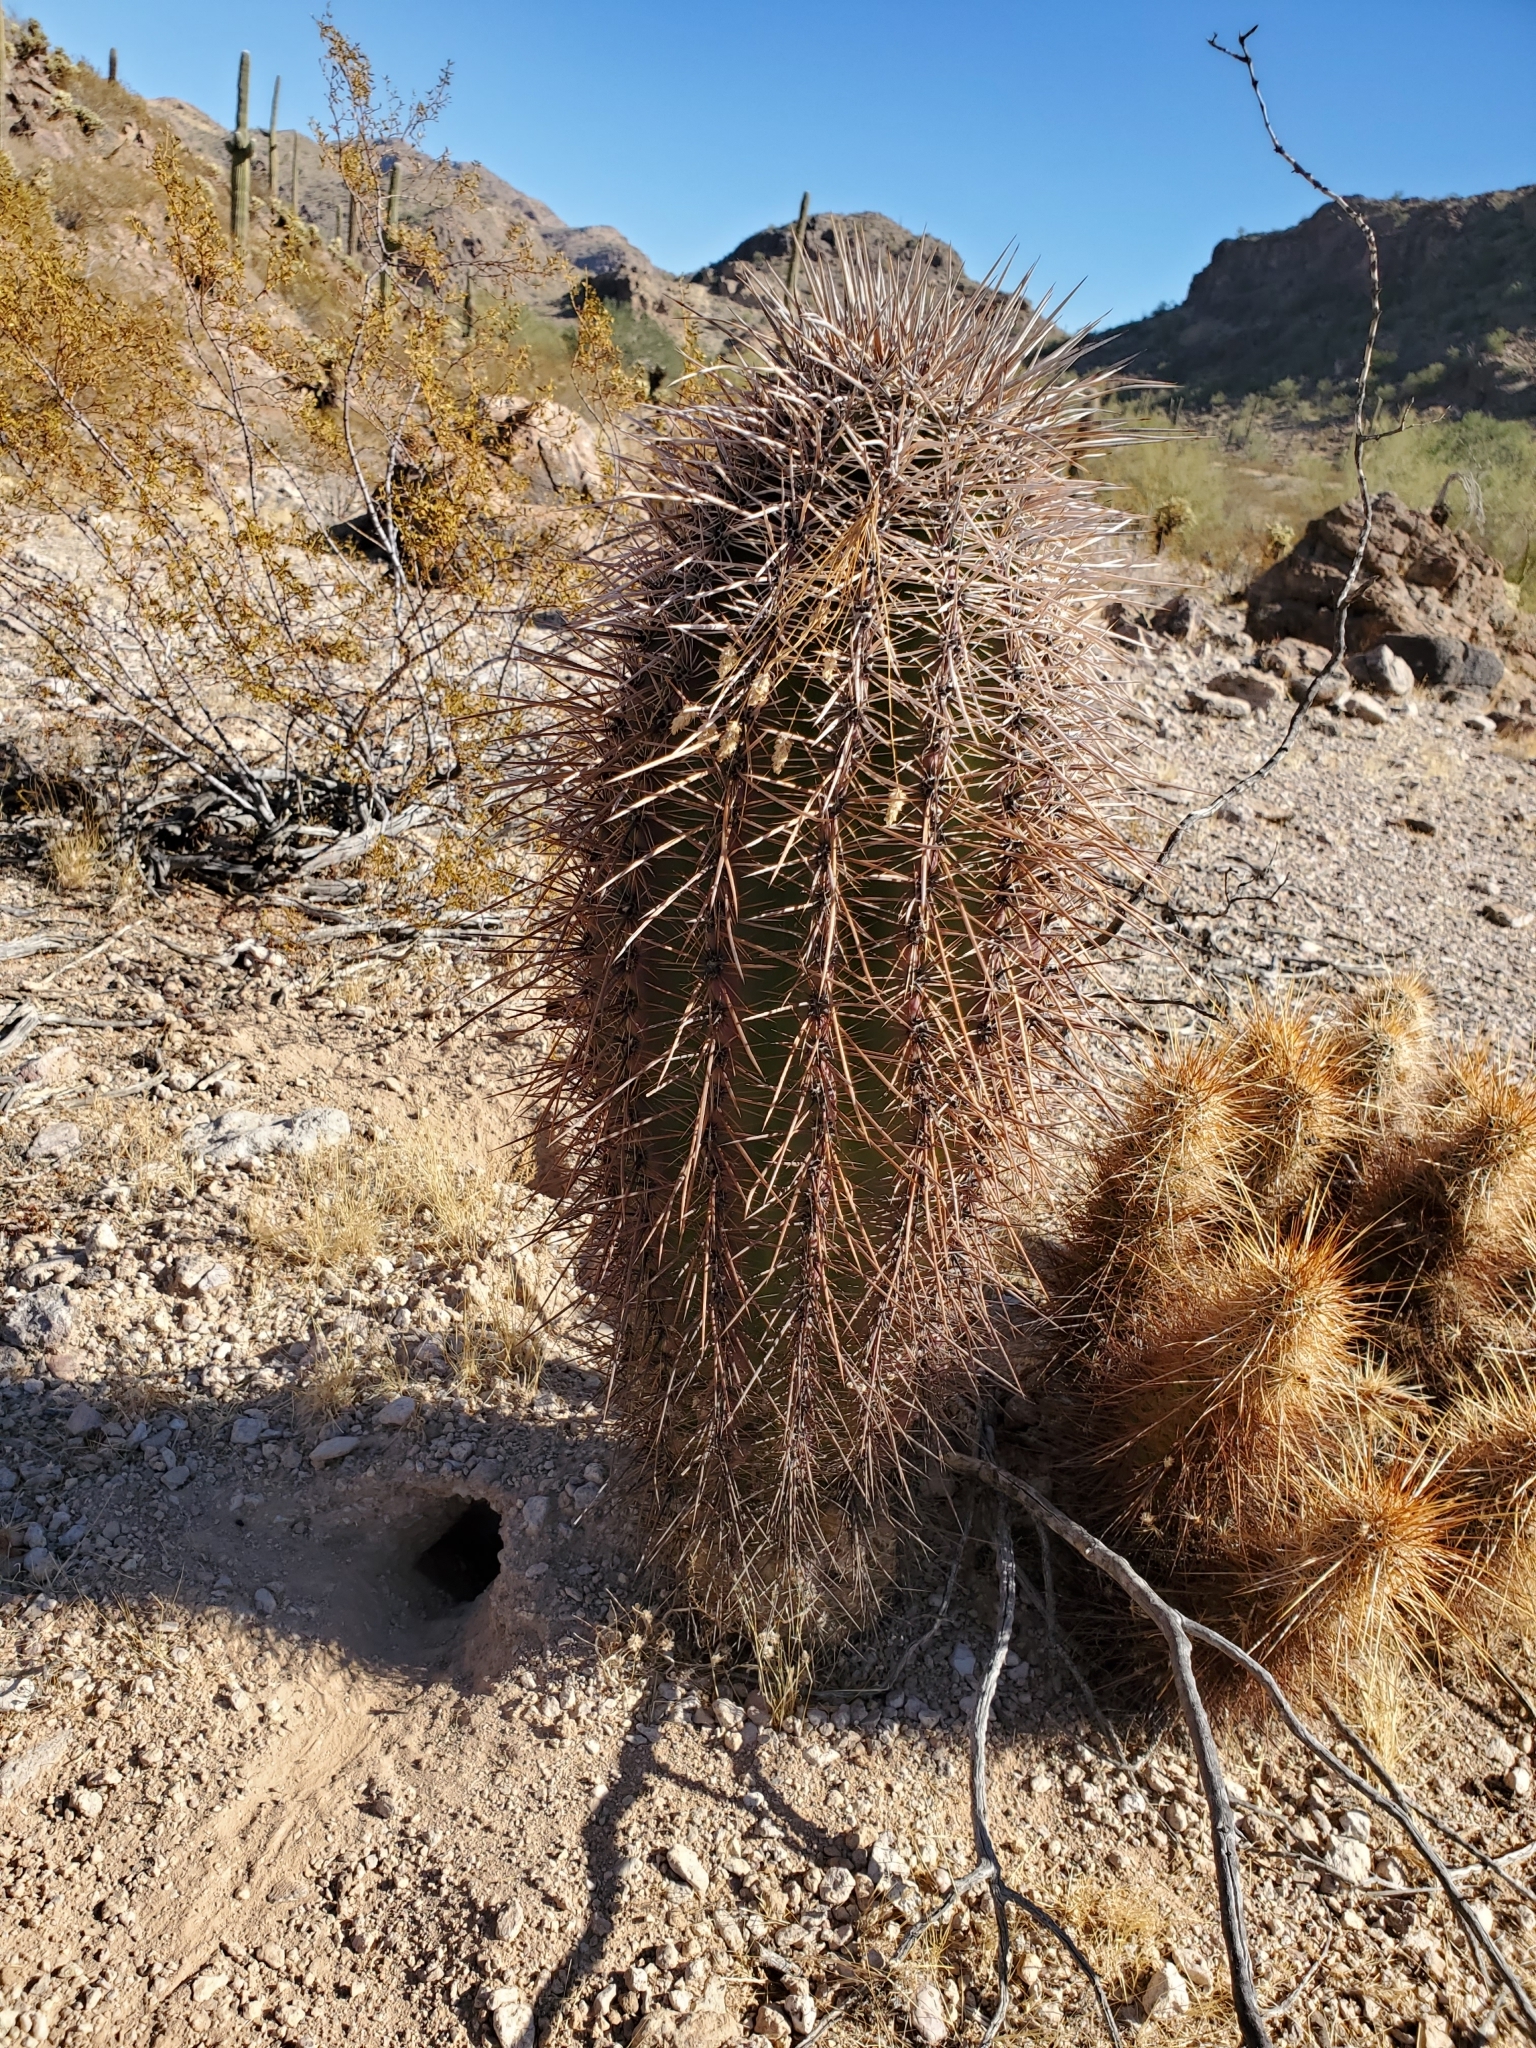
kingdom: Plantae
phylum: Tracheophyta
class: Magnoliopsida
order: Caryophyllales
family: Cactaceae
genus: Carnegiea
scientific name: Carnegiea gigantea
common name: Saguaro
